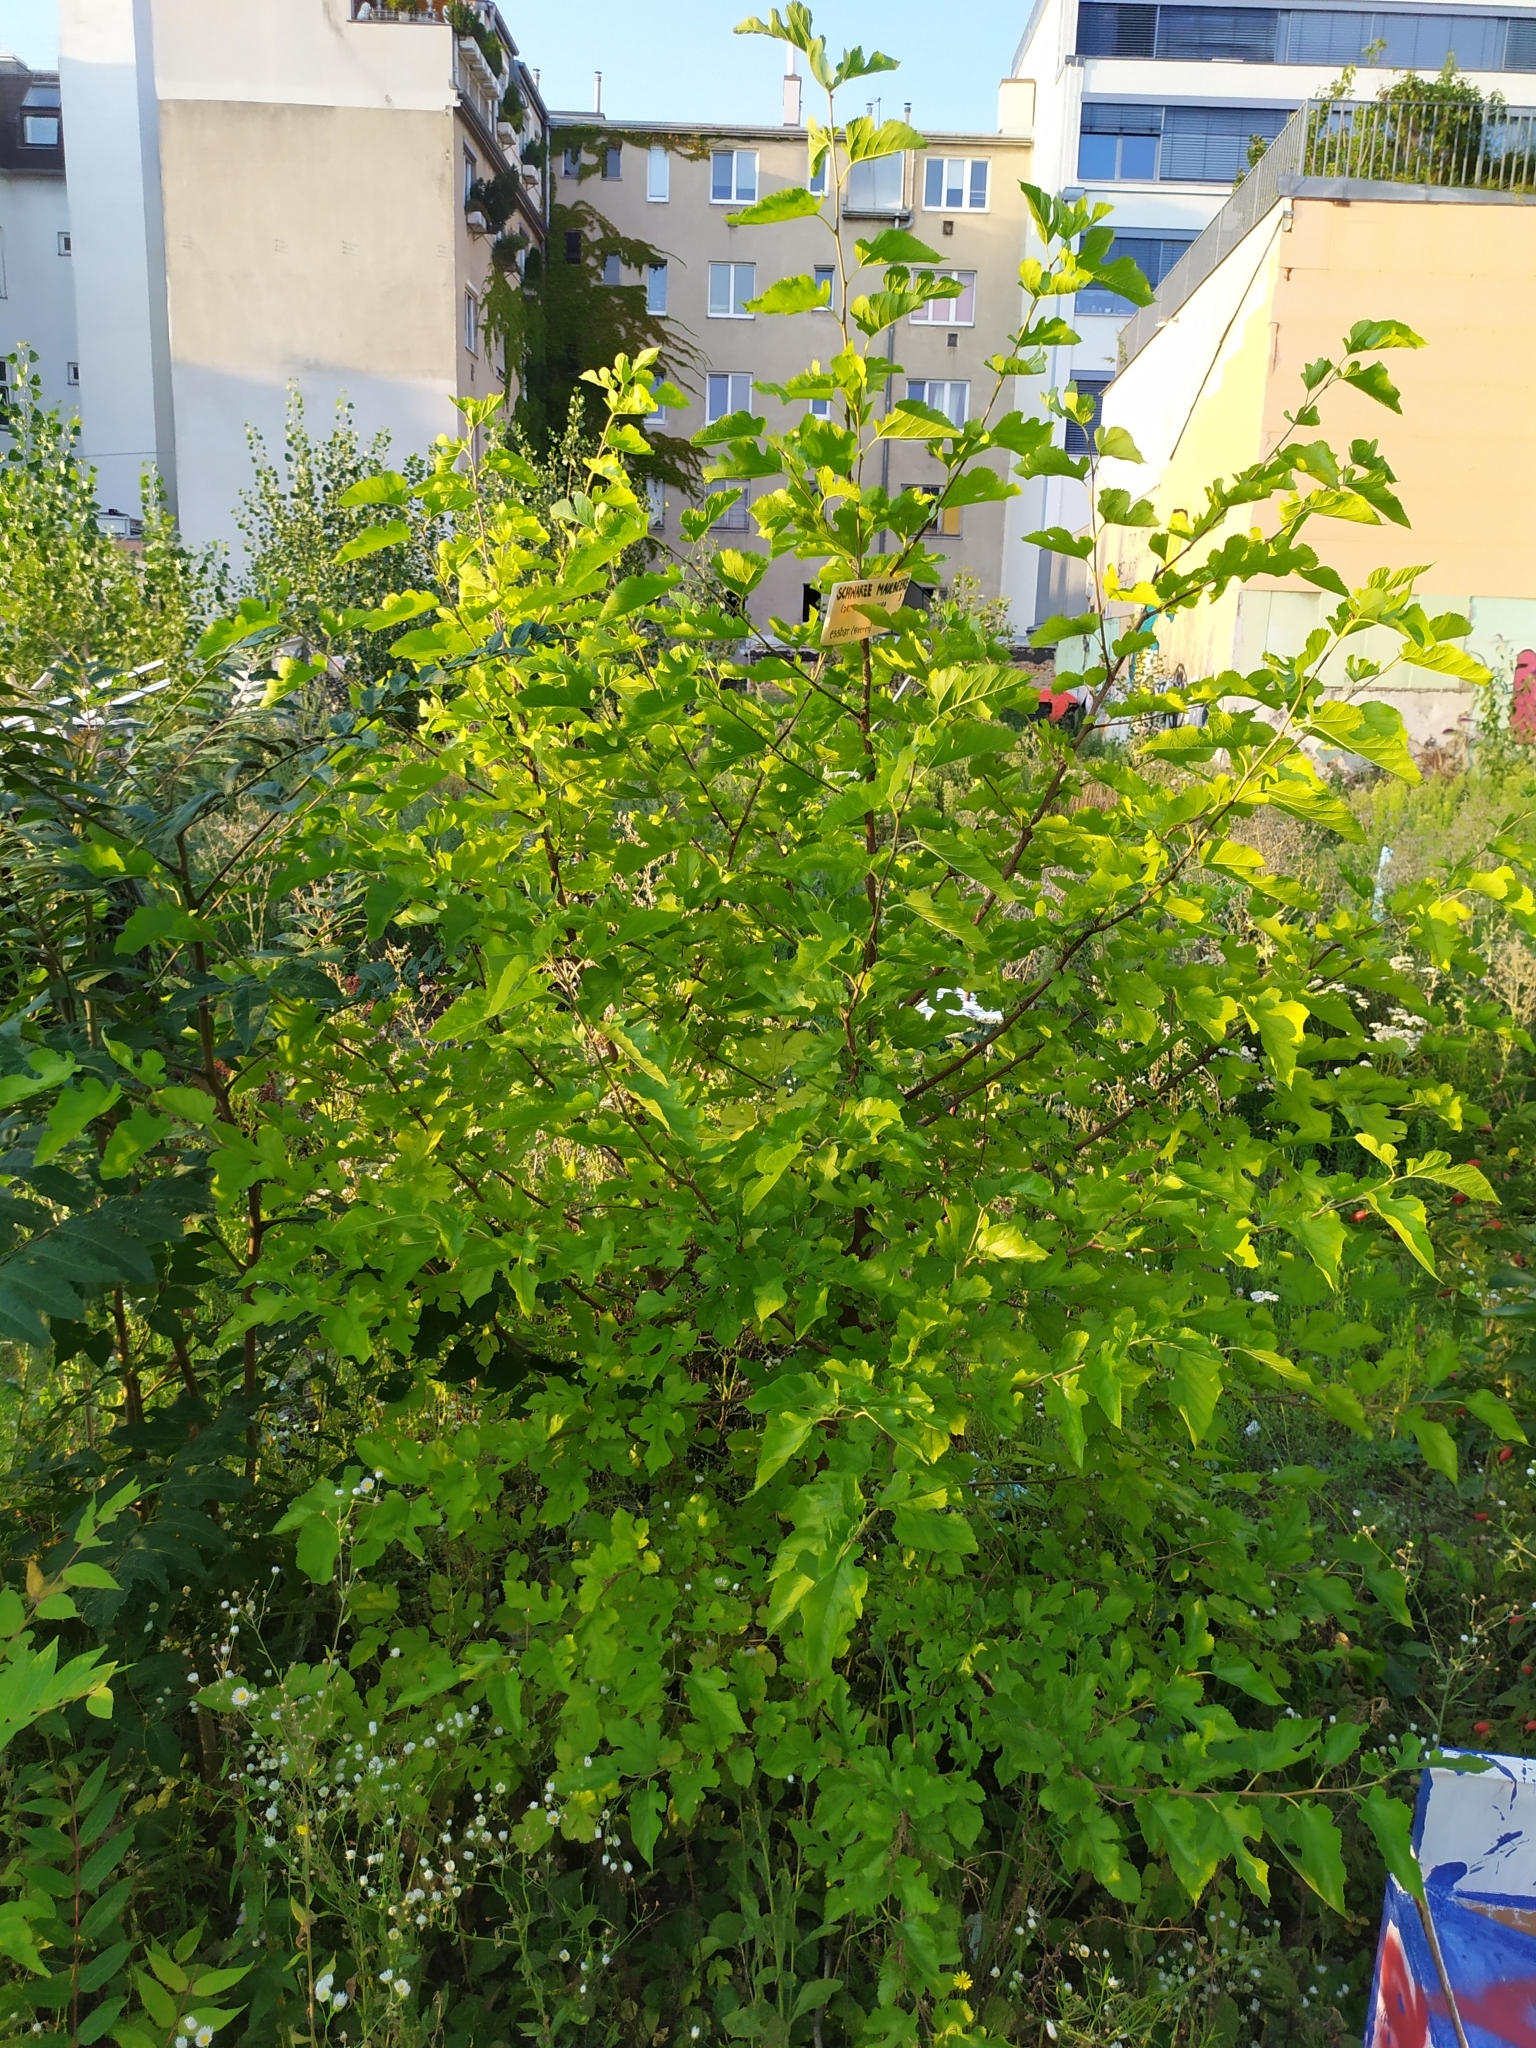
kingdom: Plantae
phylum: Tracheophyta
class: Magnoliopsida
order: Rosales
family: Moraceae
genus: Morus
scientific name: Morus alba
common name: White mulberry
